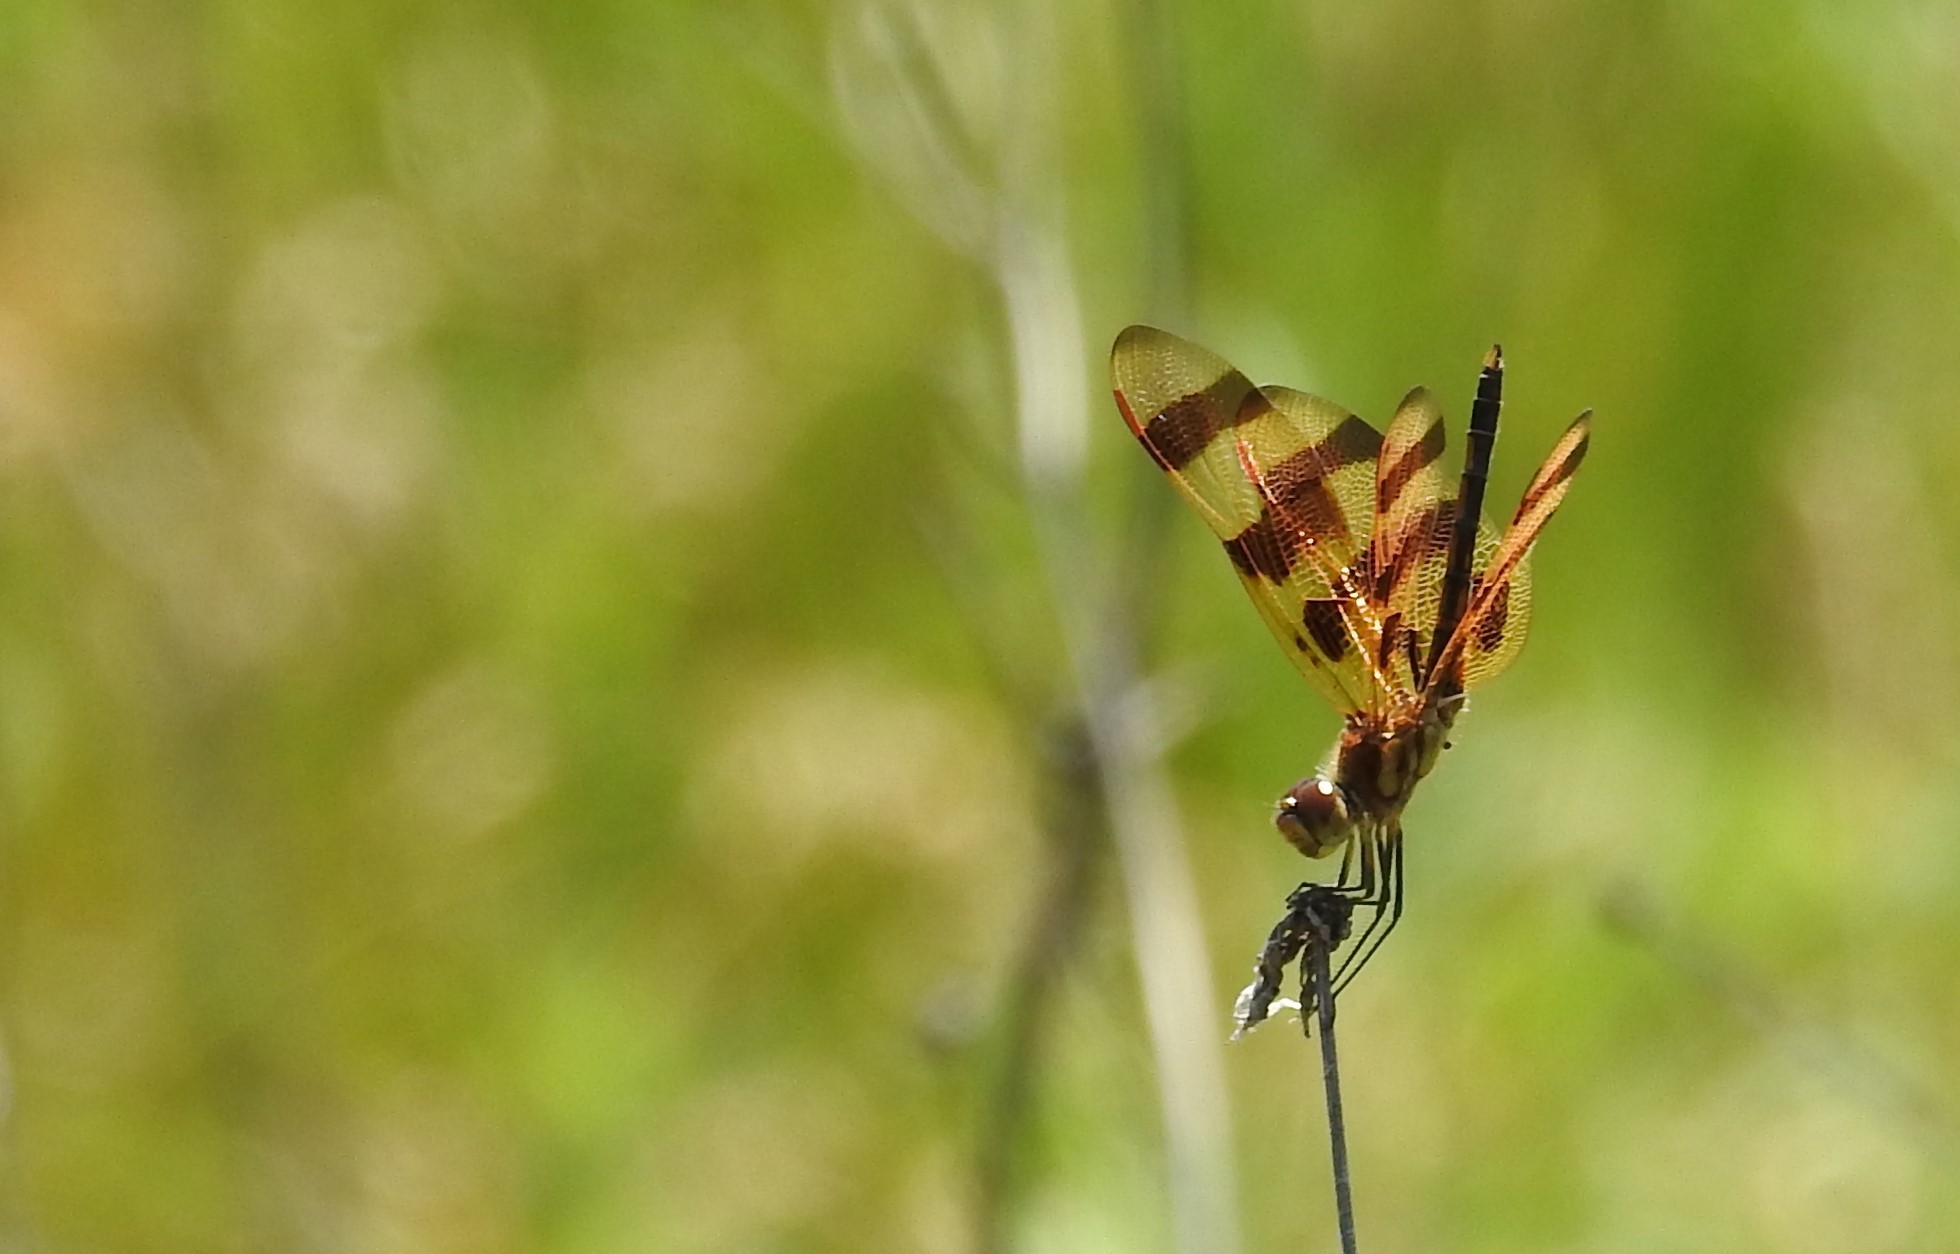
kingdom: Animalia
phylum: Arthropoda
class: Insecta
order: Odonata
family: Libellulidae
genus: Celithemis
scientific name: Celithemis eponina
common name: Halloween pennant
